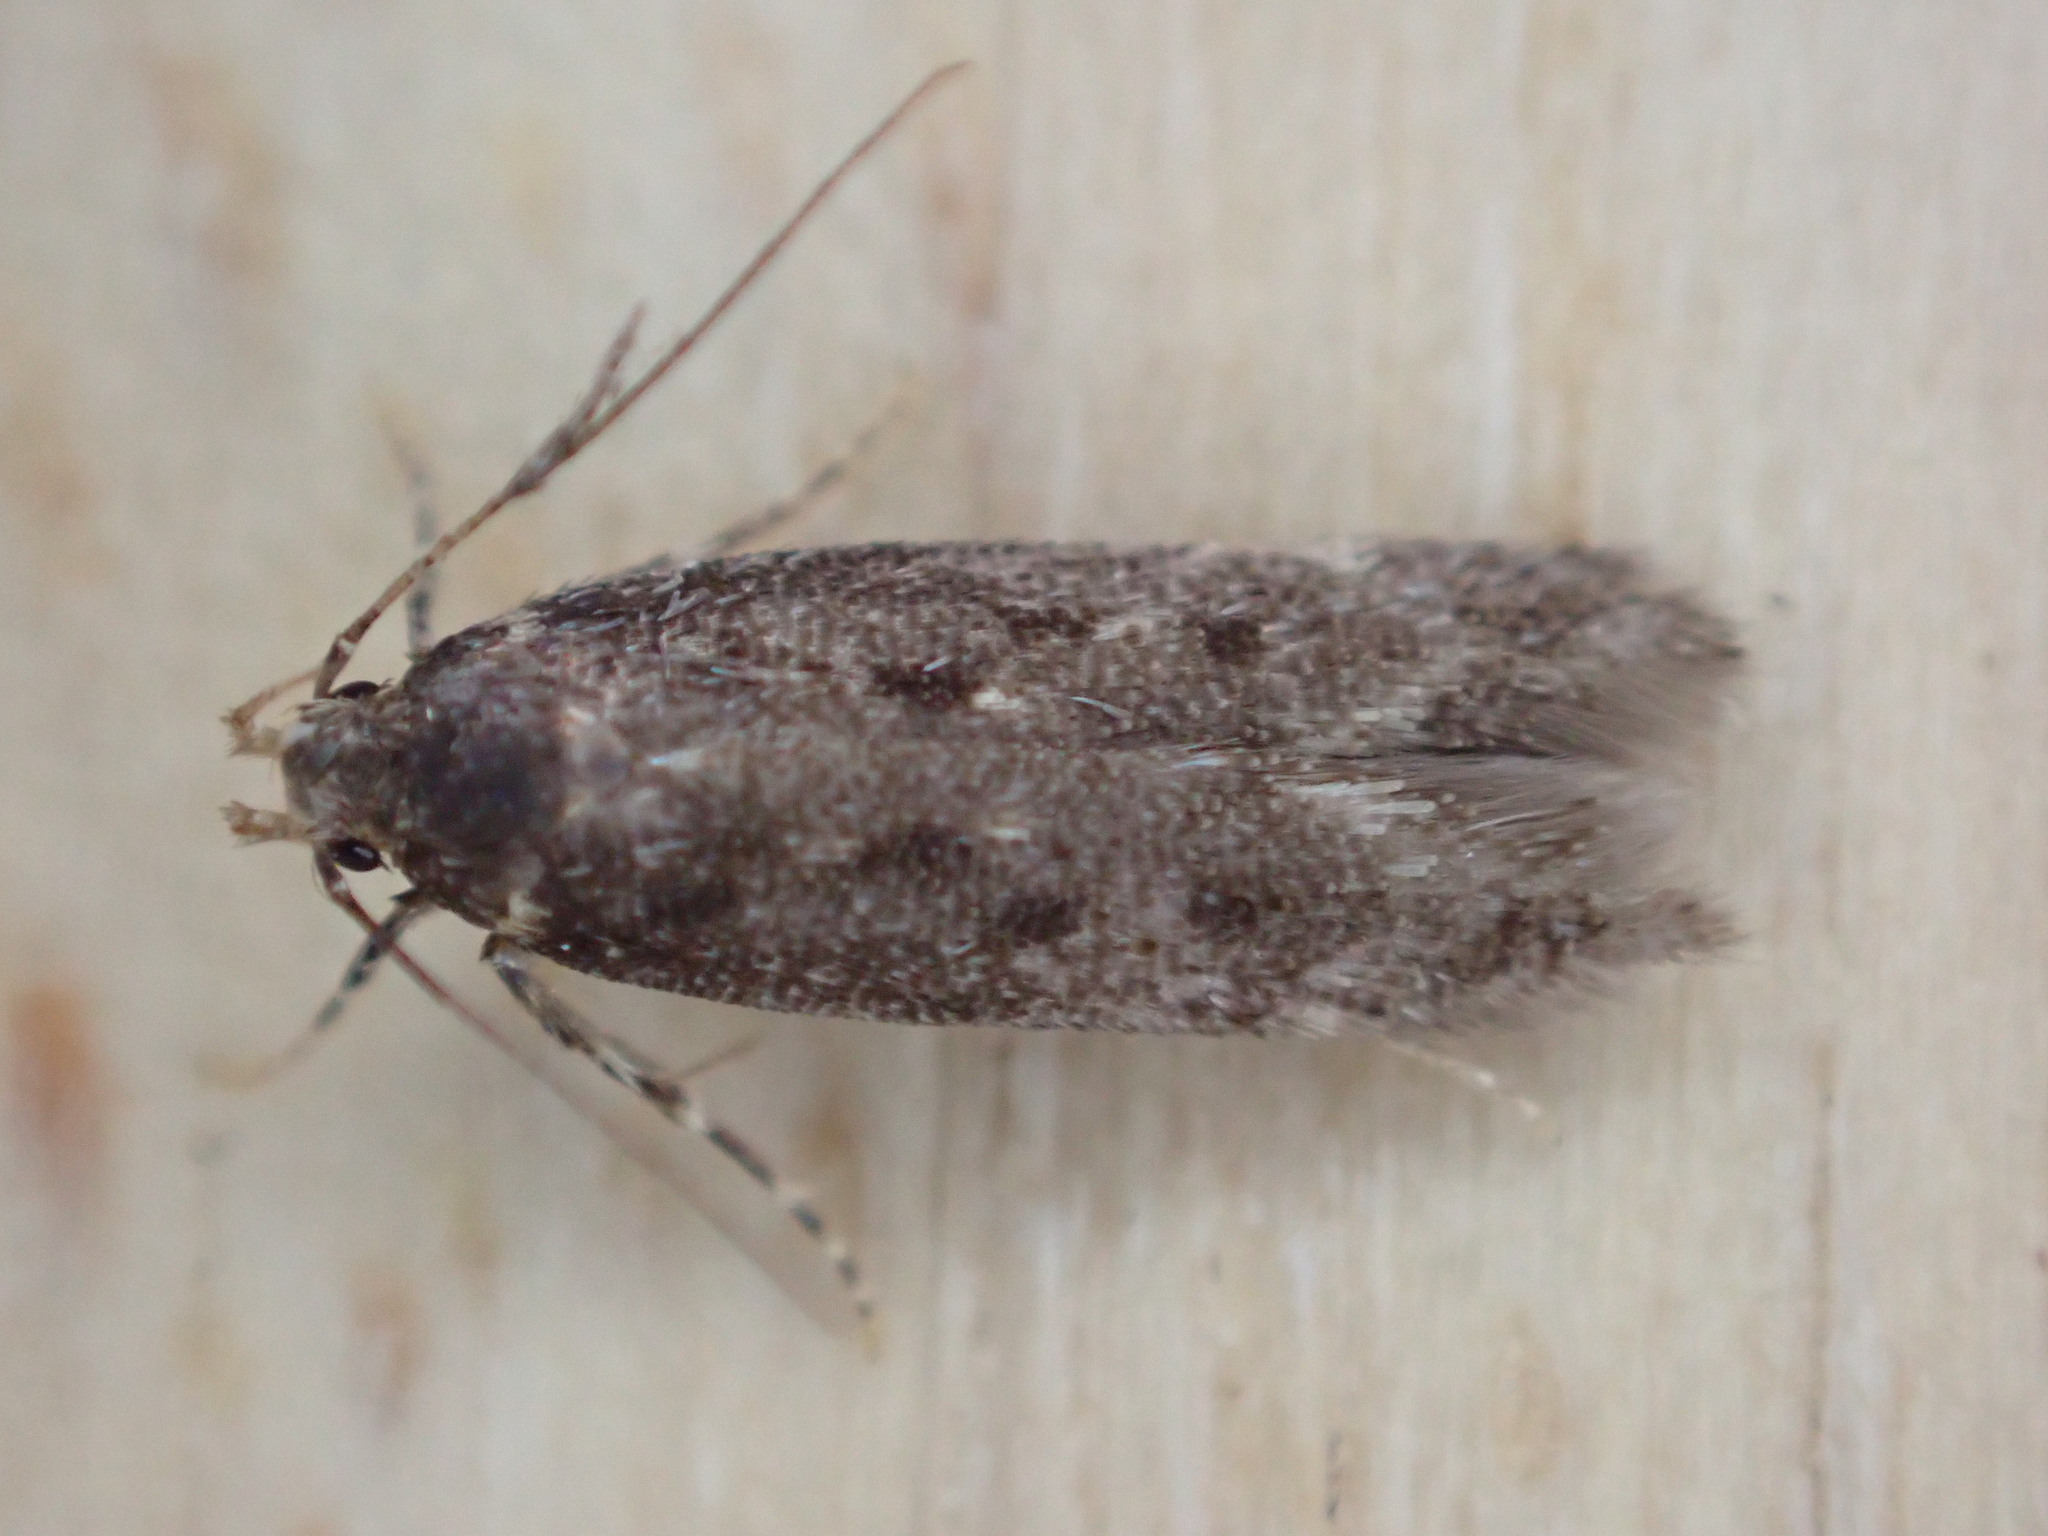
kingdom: Animalia
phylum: Arthropoda
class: Insecta
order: Lepidoptera
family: Gelechiidae
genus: Bryotropha
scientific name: Bryotropha affinis
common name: Dark groundling
